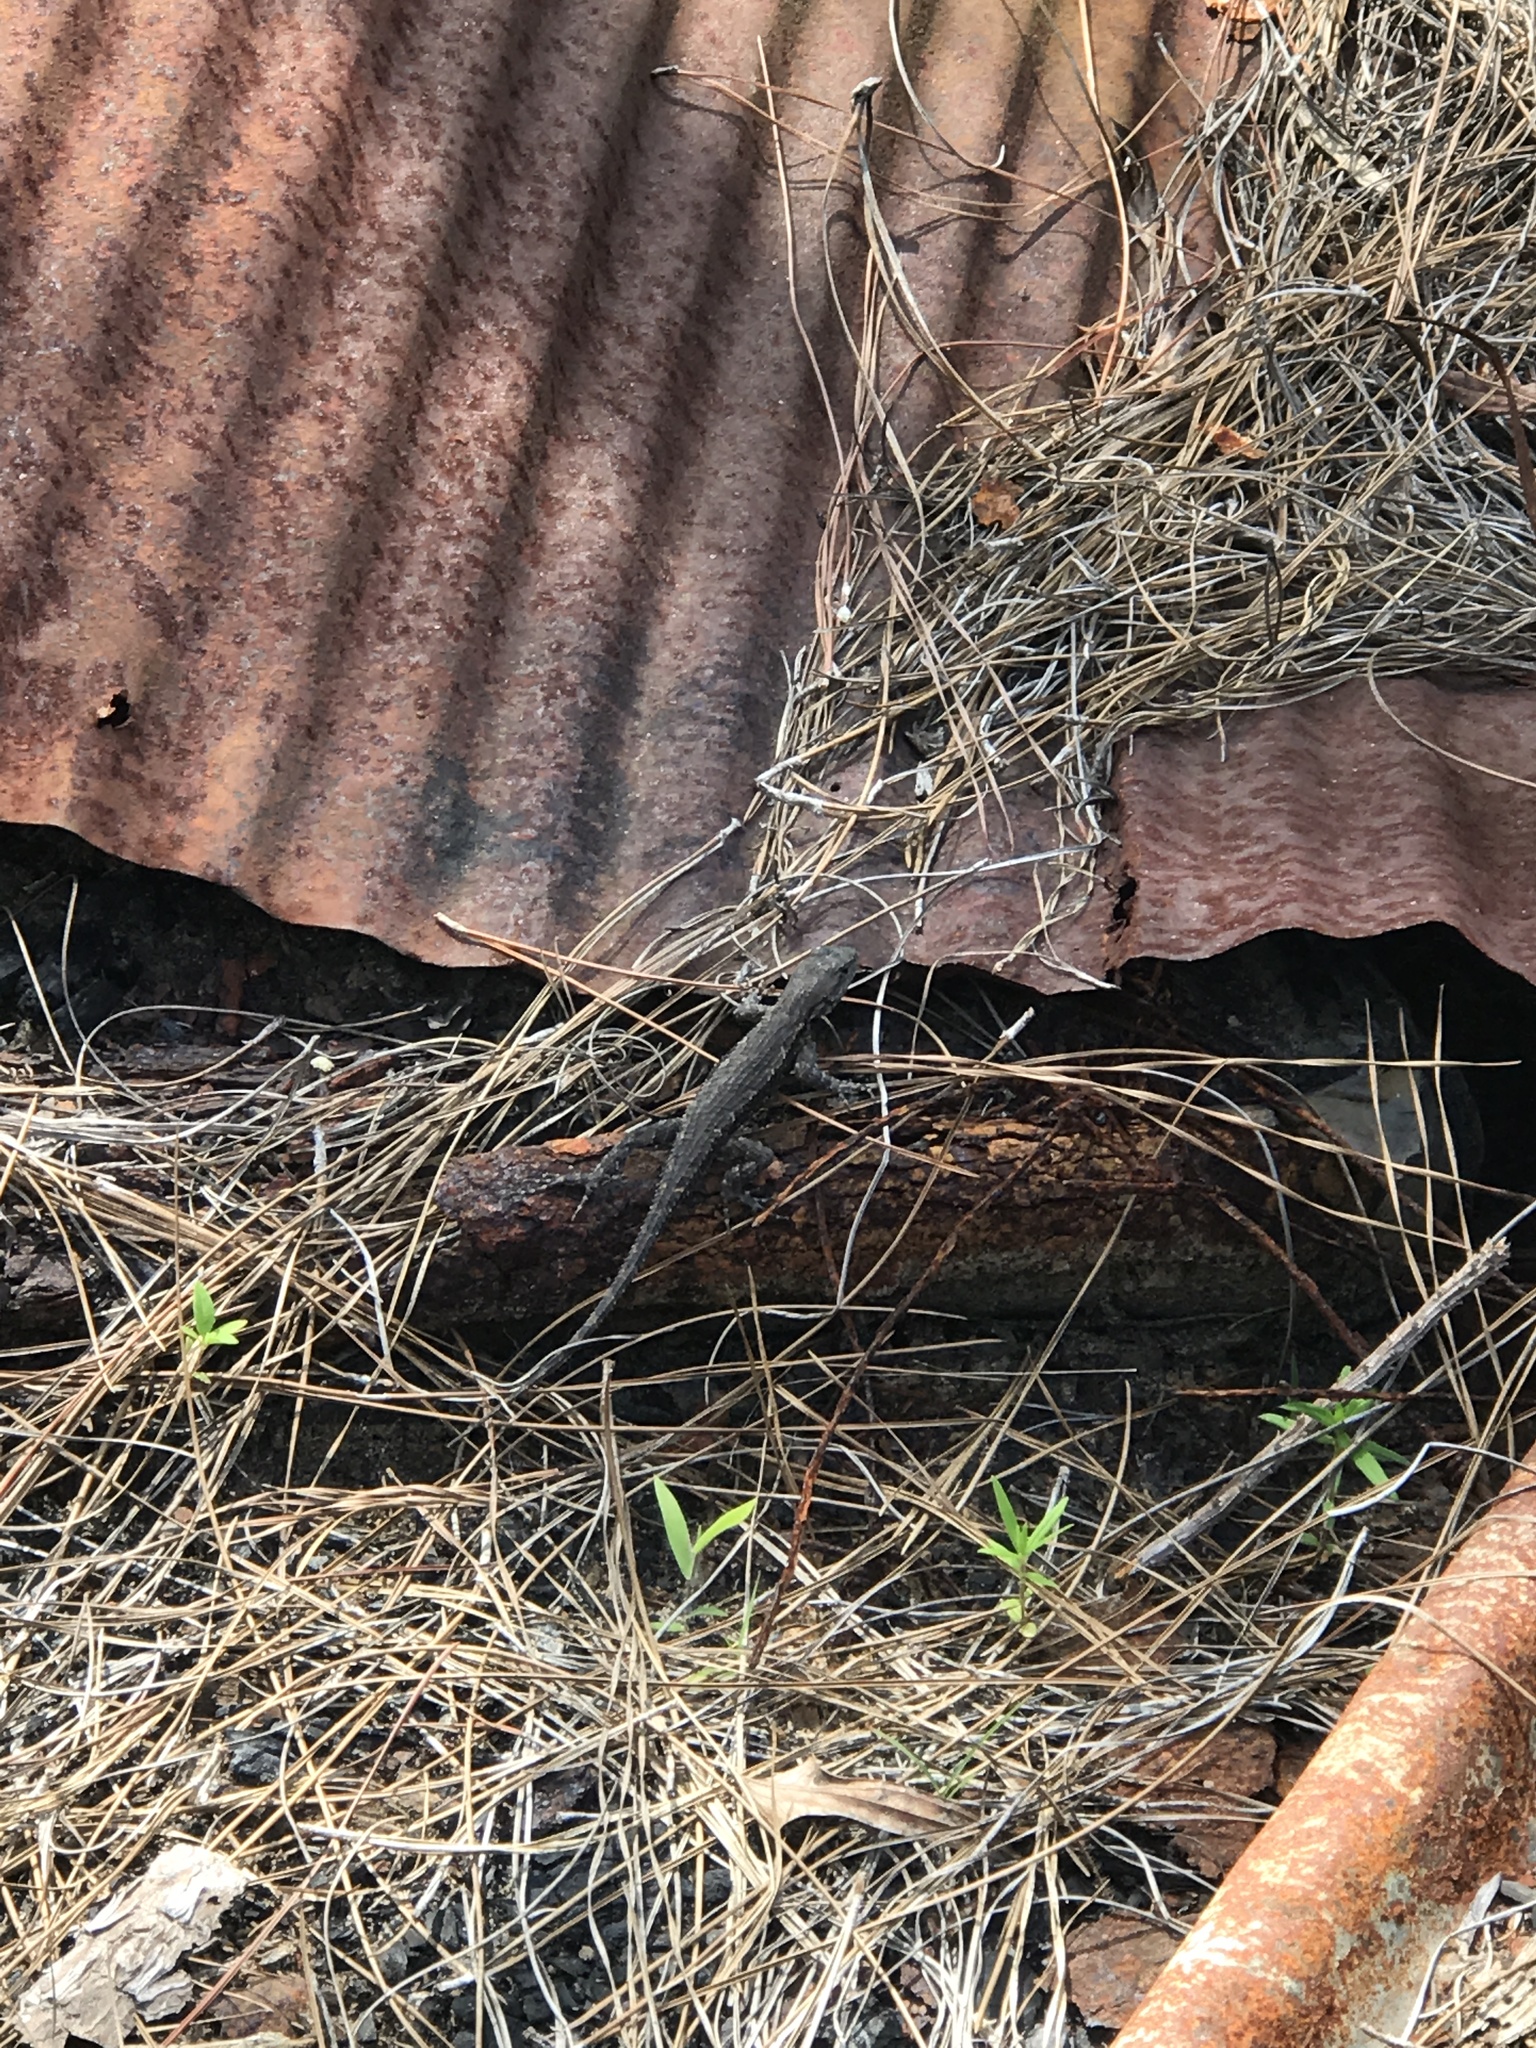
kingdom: Animalia
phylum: Chordata
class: Squamata
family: Phrynosomatidae
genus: Sceloporus
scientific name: Sceloporus consobrinus
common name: Southern prairie lizard
